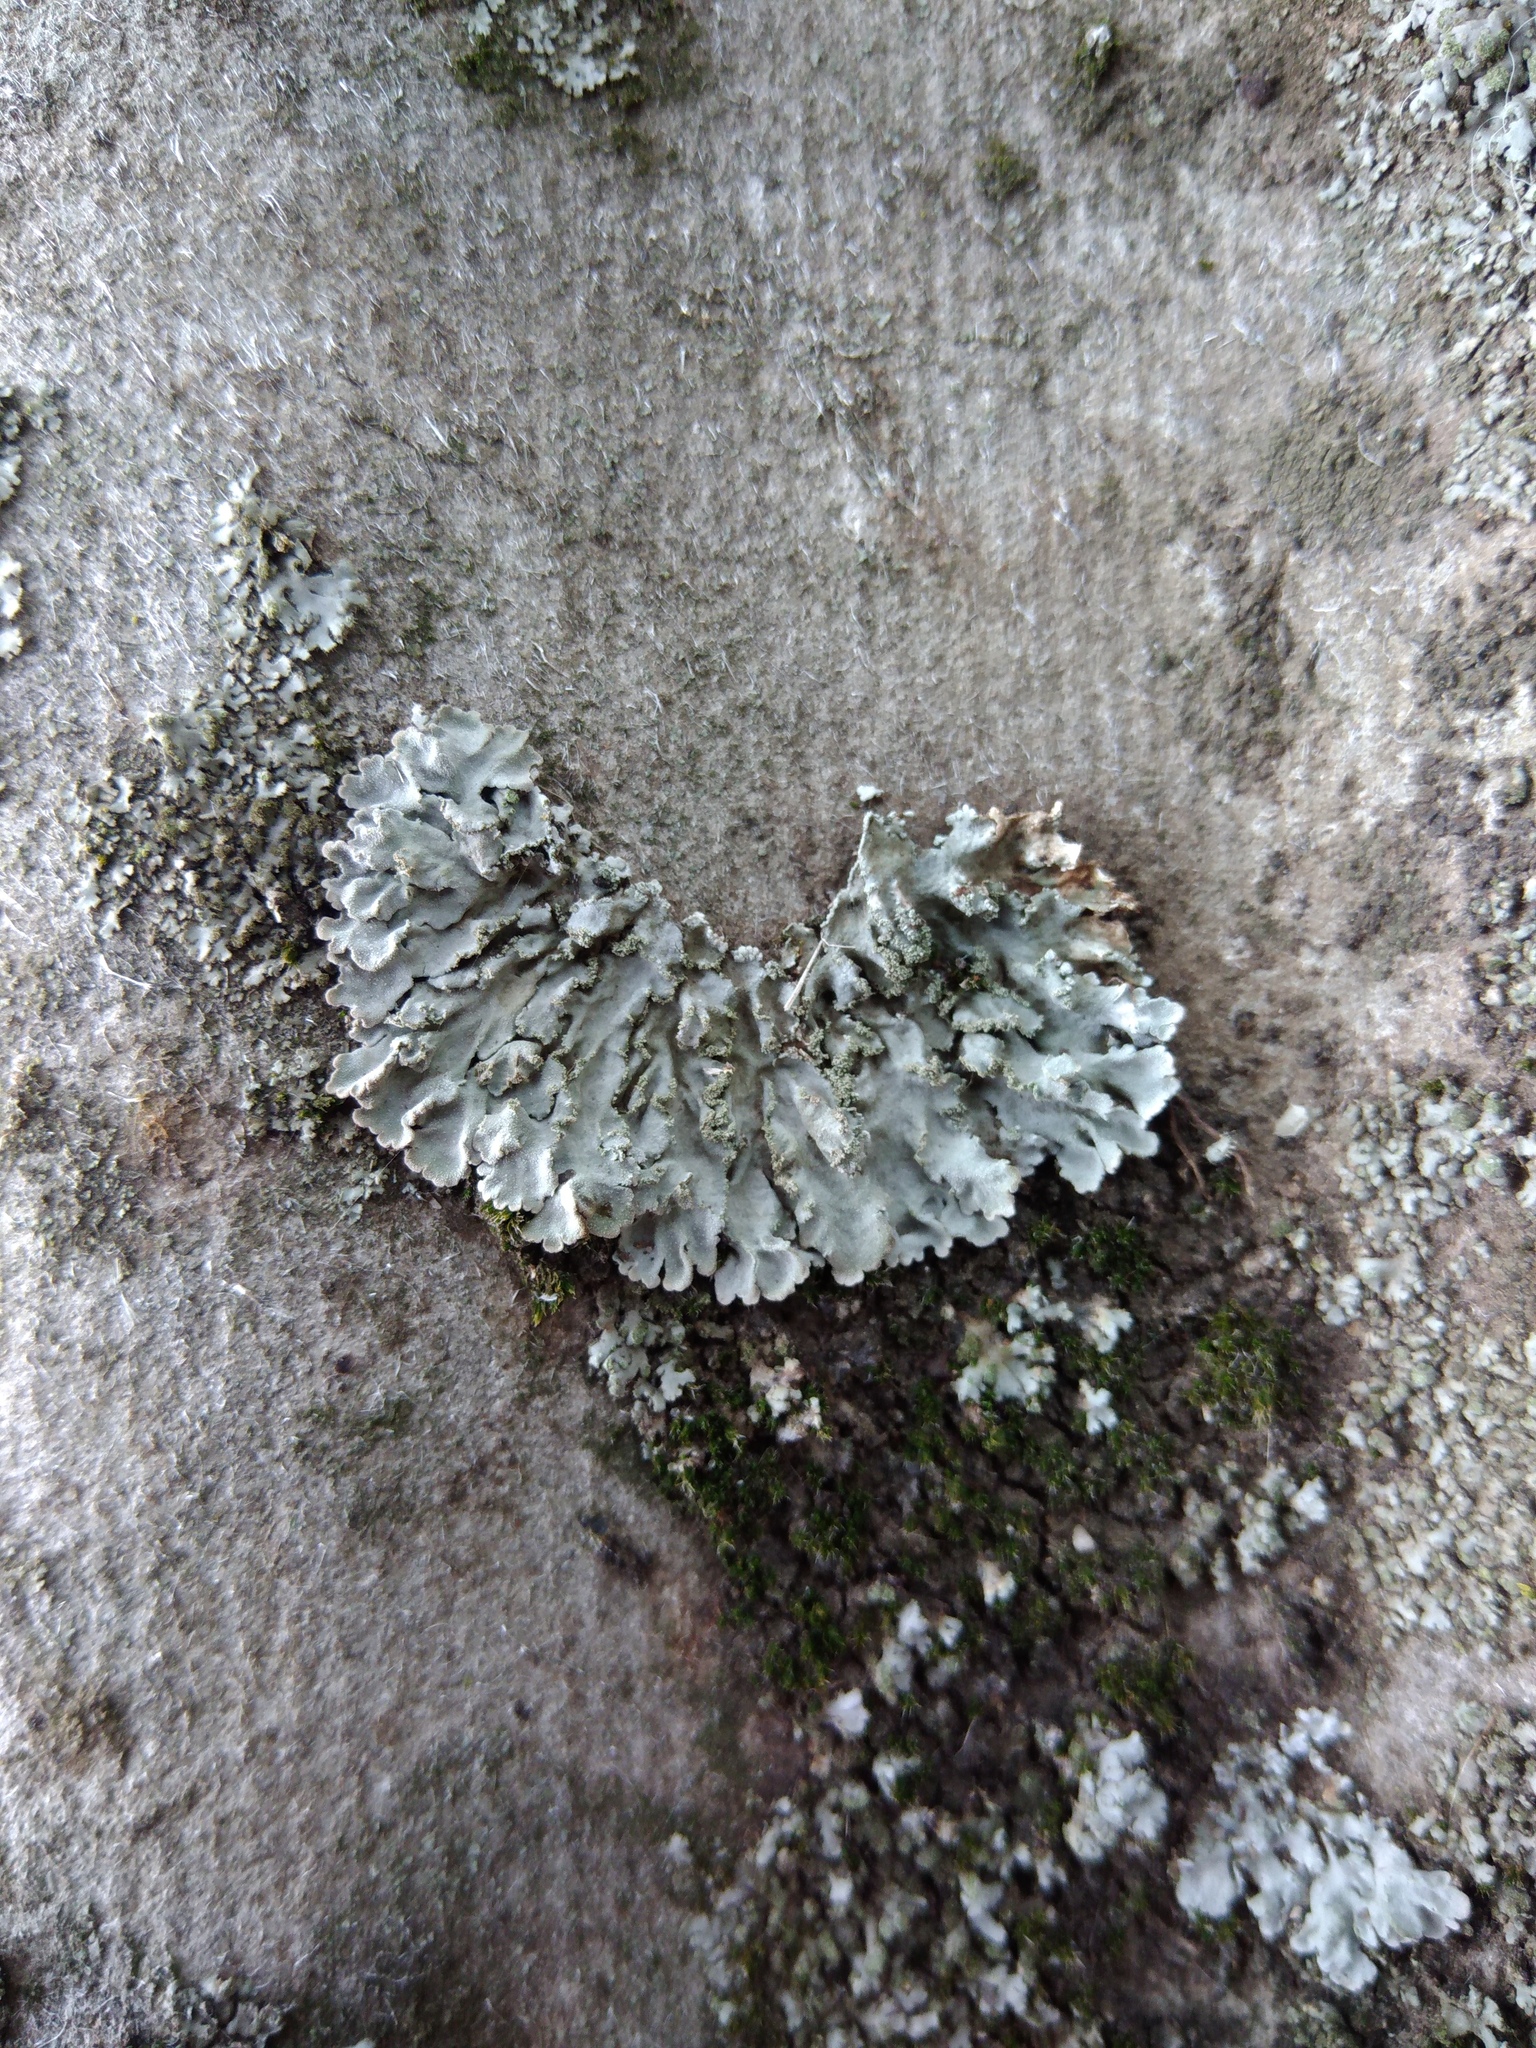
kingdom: Fungi
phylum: Ascomycota
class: Lecanoromycetes
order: Caliciales
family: Physciaceae
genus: Poeltonia
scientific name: Poeltonia grisea
